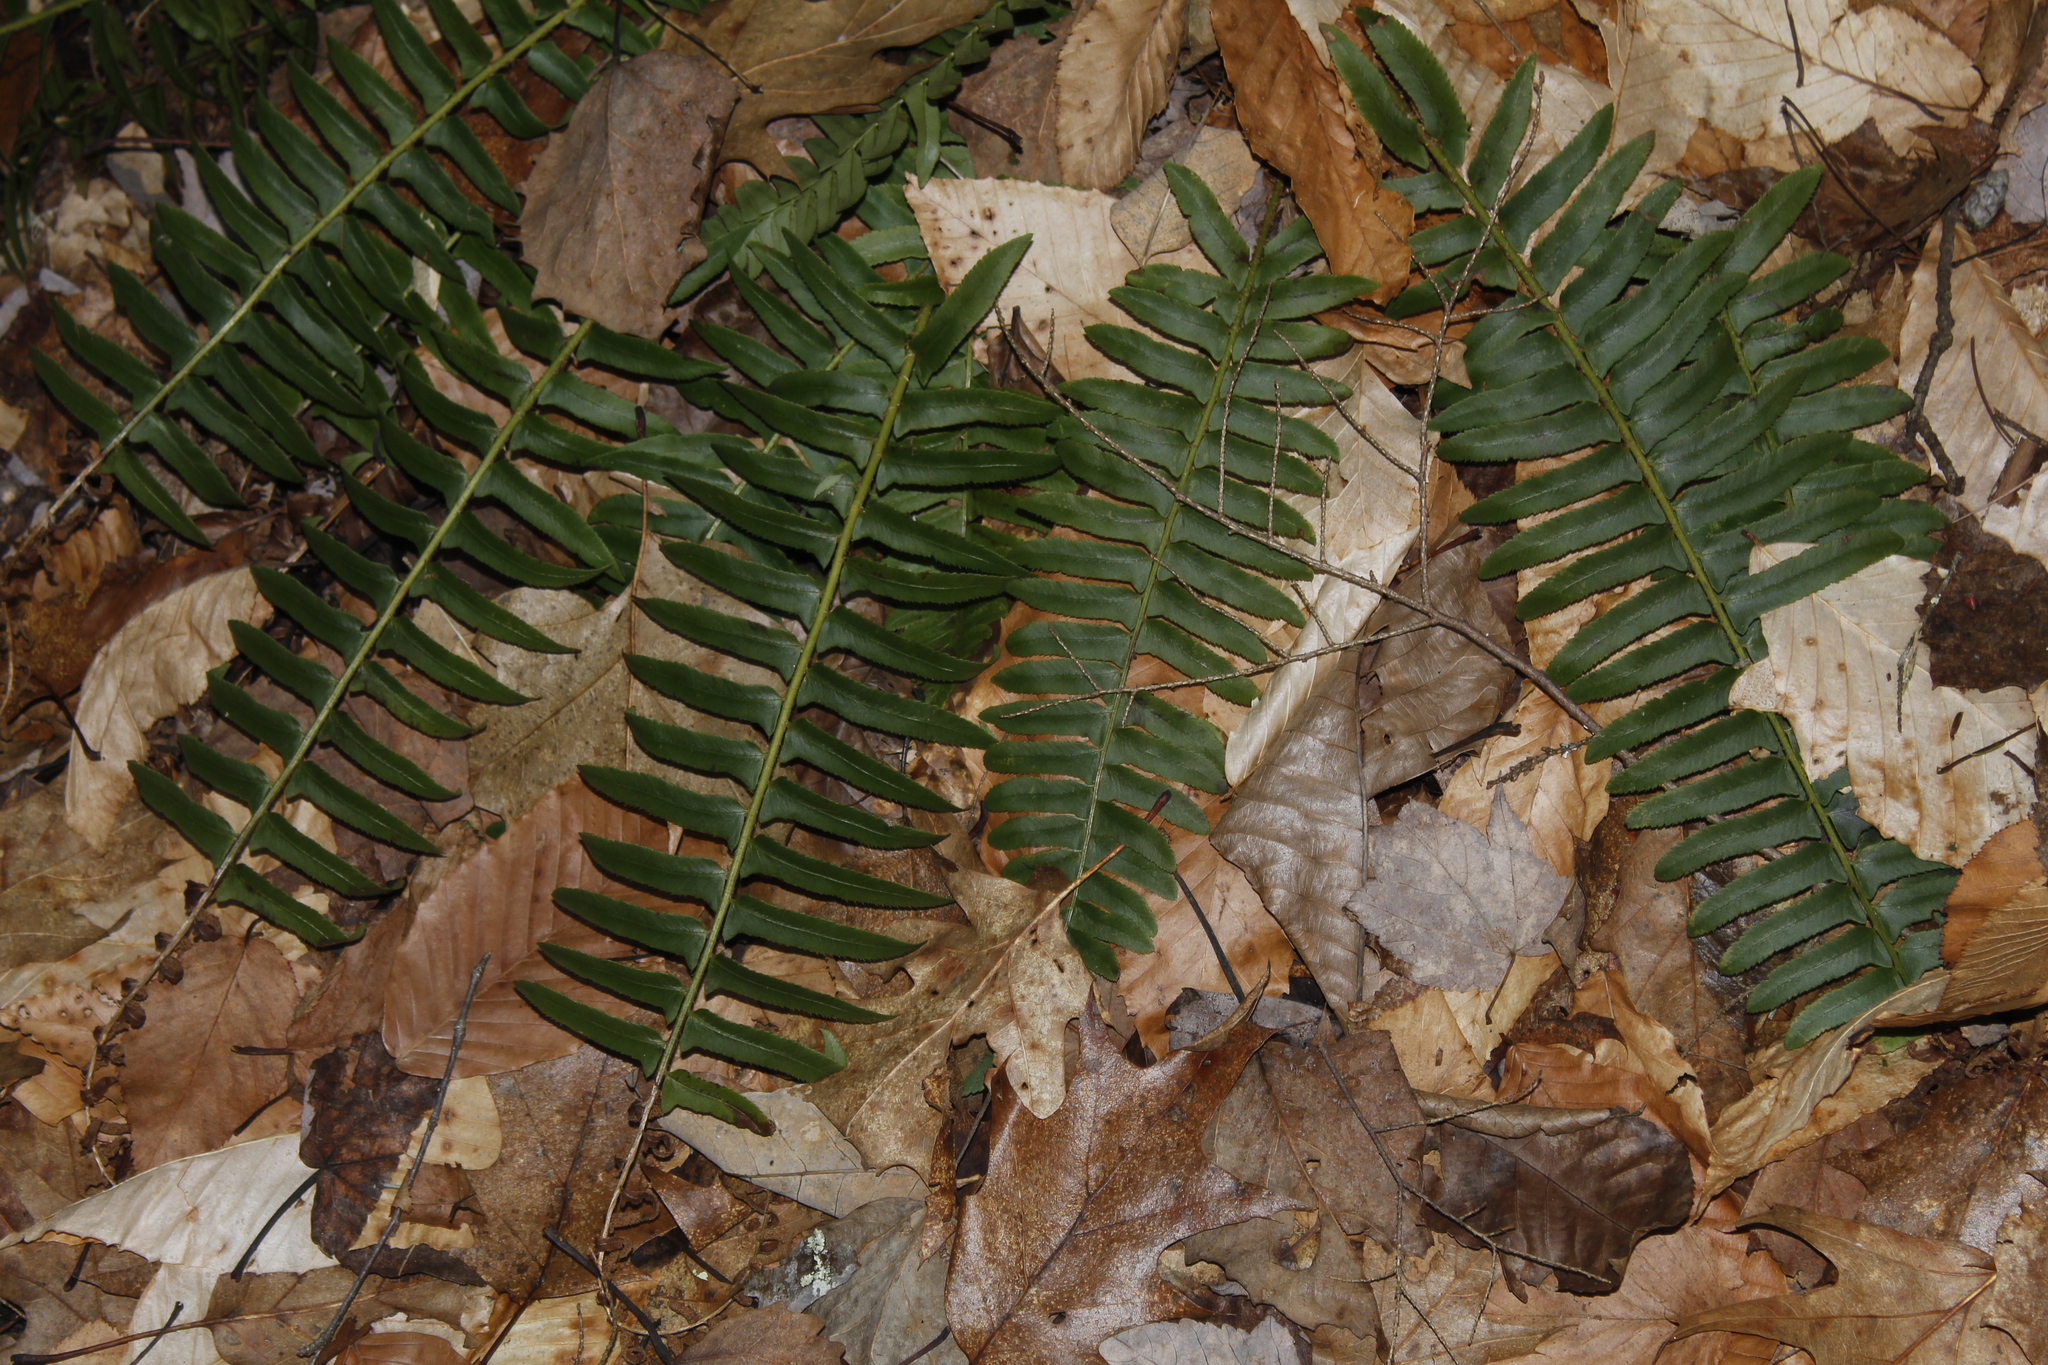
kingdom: Plantae
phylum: Tracheophyta
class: Polypodiopsida
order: Polypodiales
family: Dryopteridaceae
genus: Polystichum
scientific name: Polystichum acrostichoides
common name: Christmas fern
